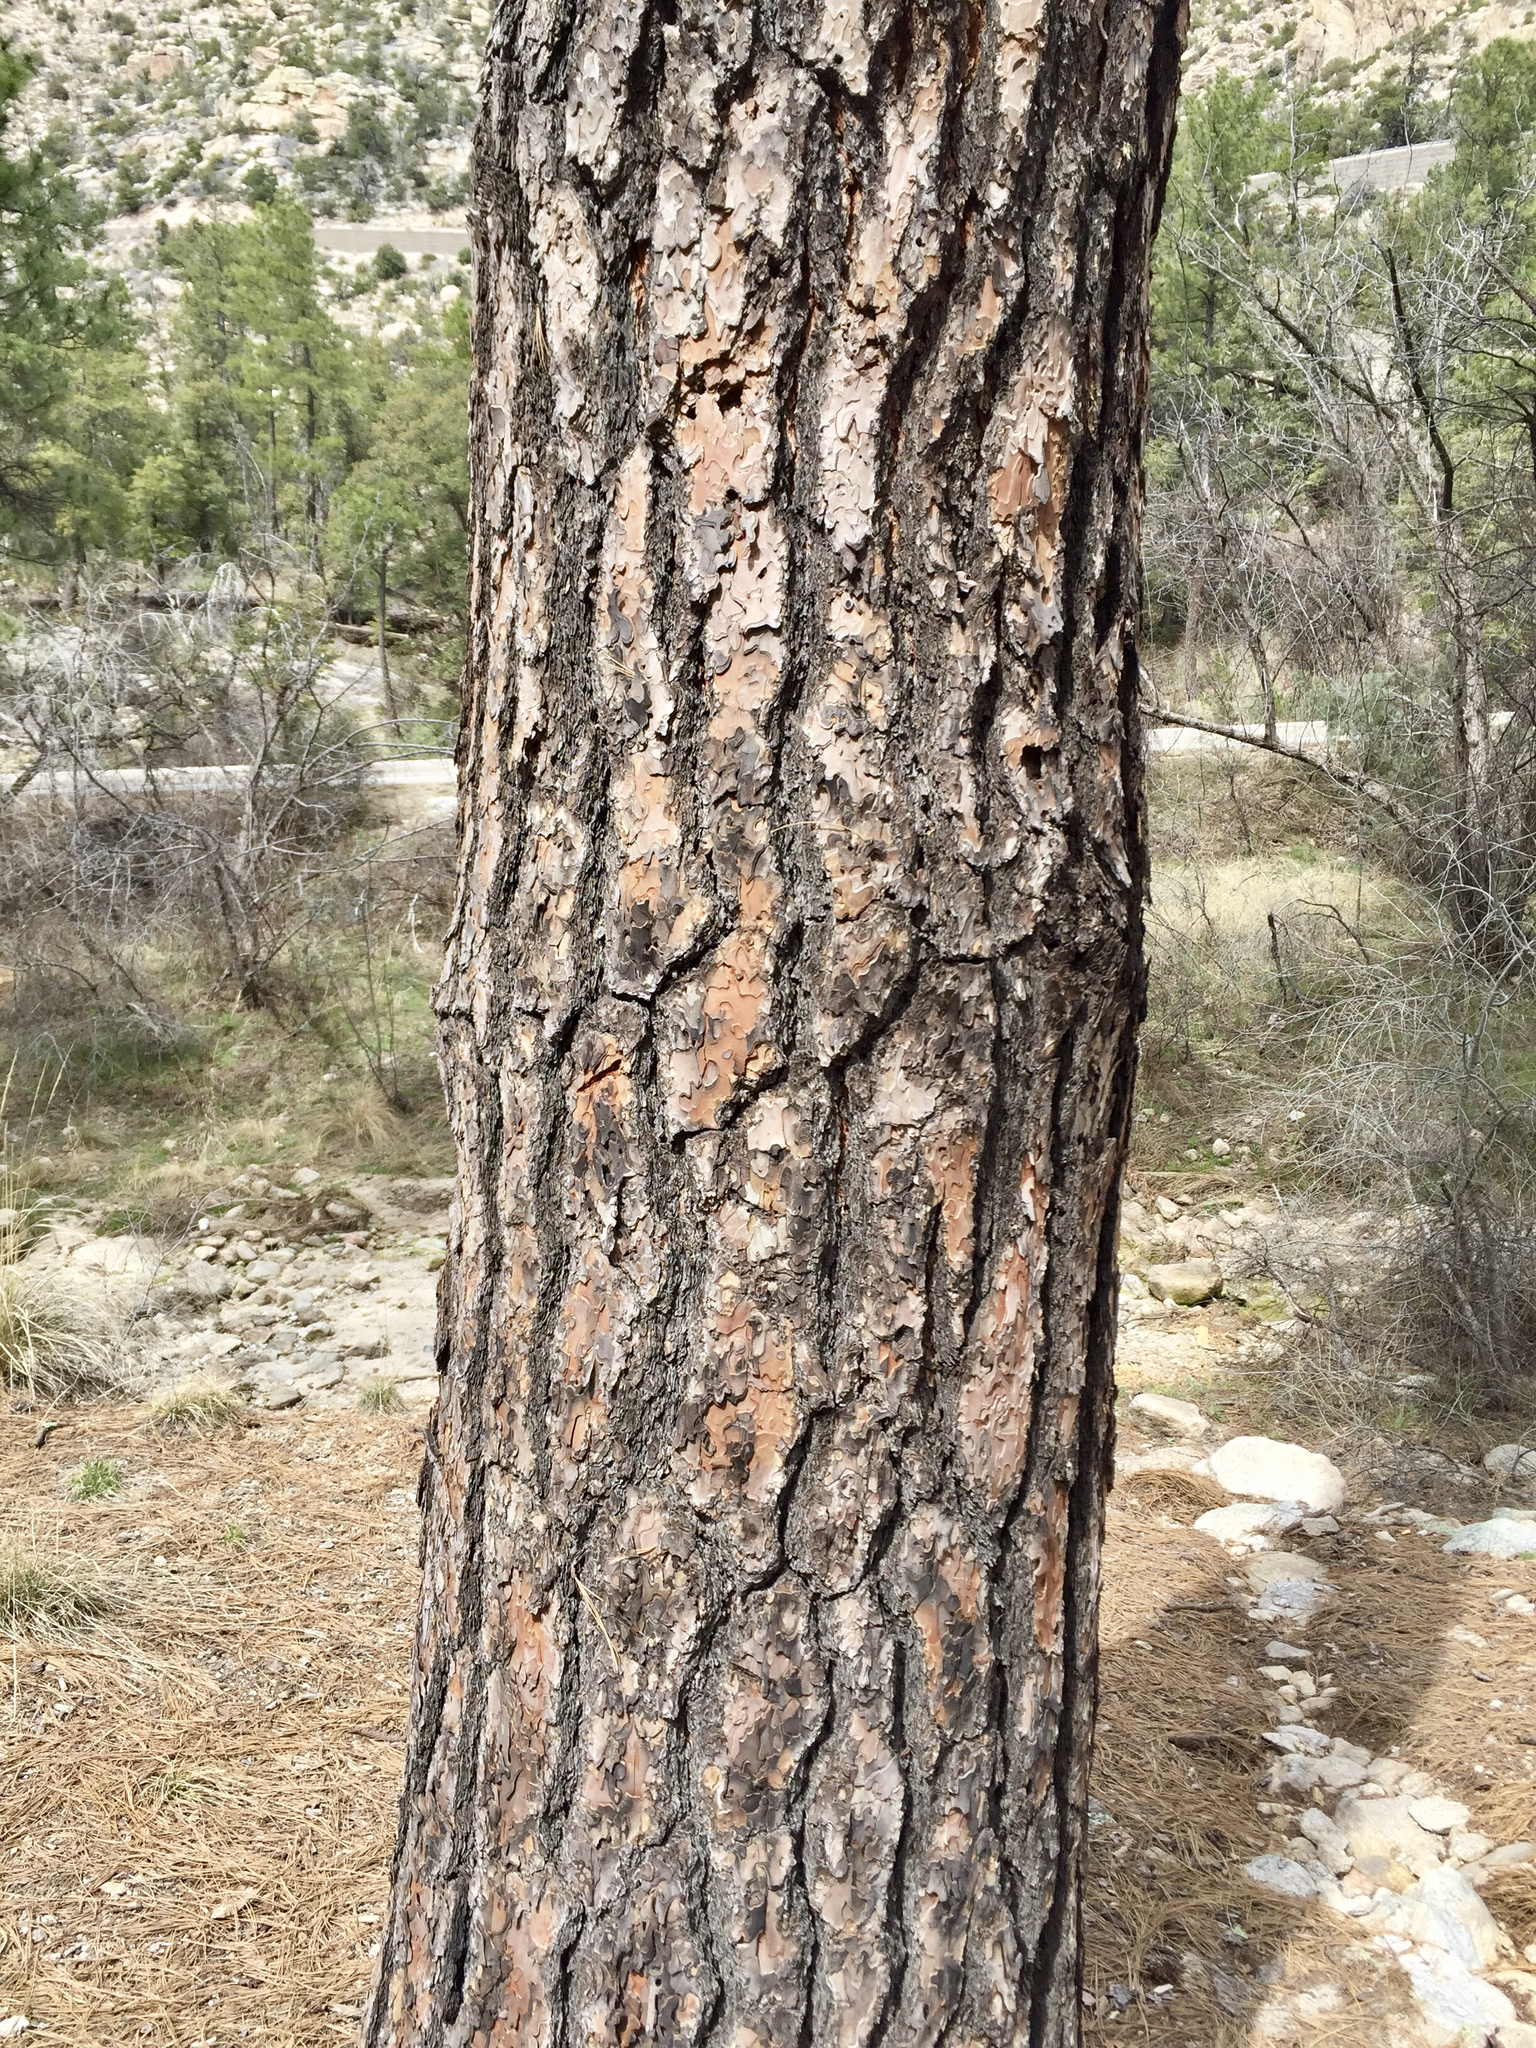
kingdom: Plantae
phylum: Tracheophyta
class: Pinopsida
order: Pinales
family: Pinaceae
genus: Pinus
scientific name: Pinus arizonica
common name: Arizona pine
